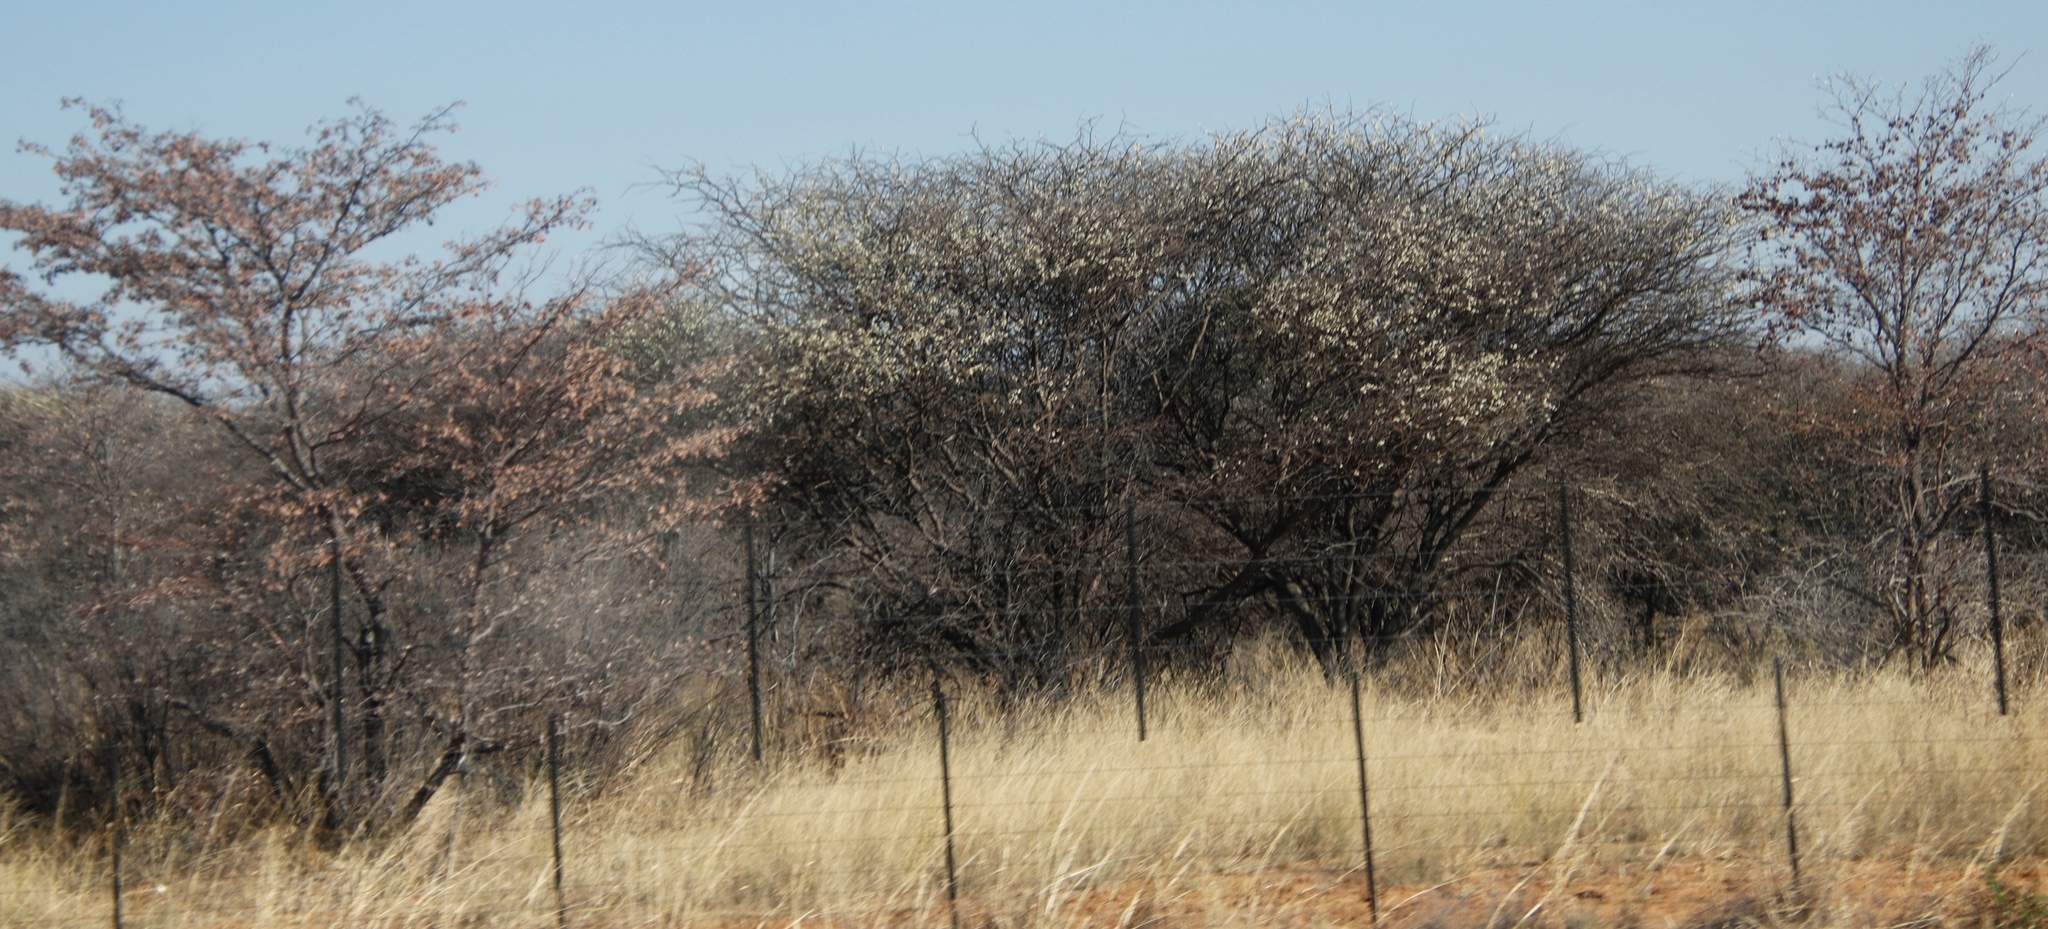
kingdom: Plantae
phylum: Tracheophyta
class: Magnoliopsida
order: Fabales
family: Fabaceae
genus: Senegalia
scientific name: Senegalia mellifera
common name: Hookthorn
